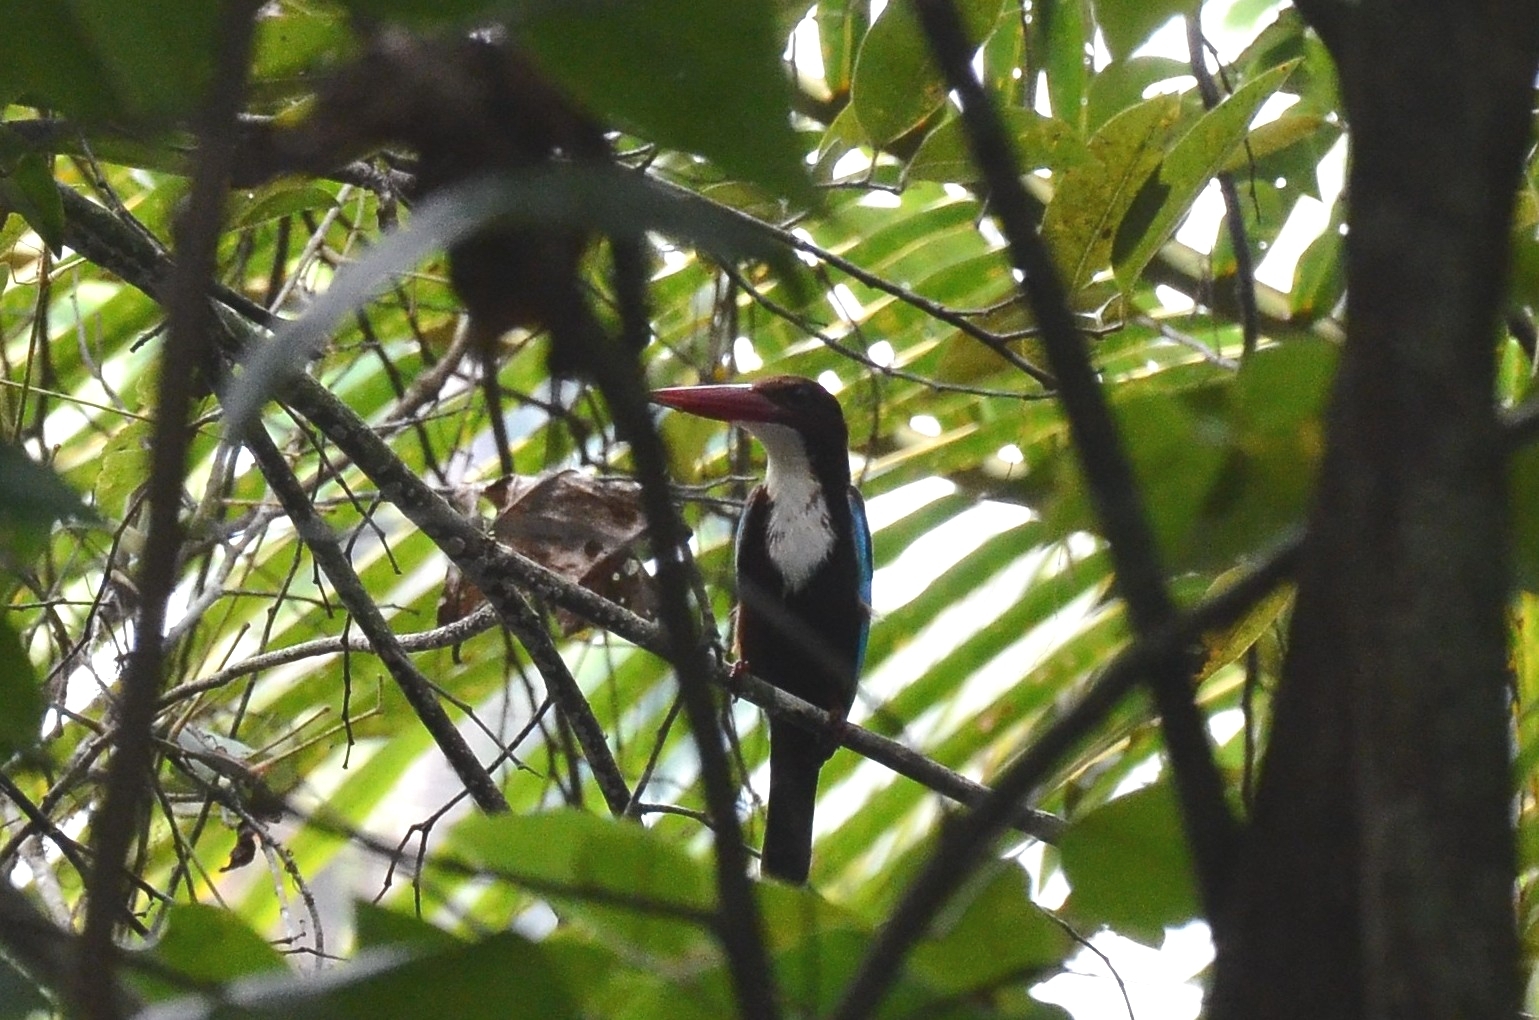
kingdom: Animalia
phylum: Chordata
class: Aves
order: Coraciiformes
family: Alcedinidae
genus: Halcyon
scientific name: Halcyon smyrnensis
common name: White-throated kingfisher
